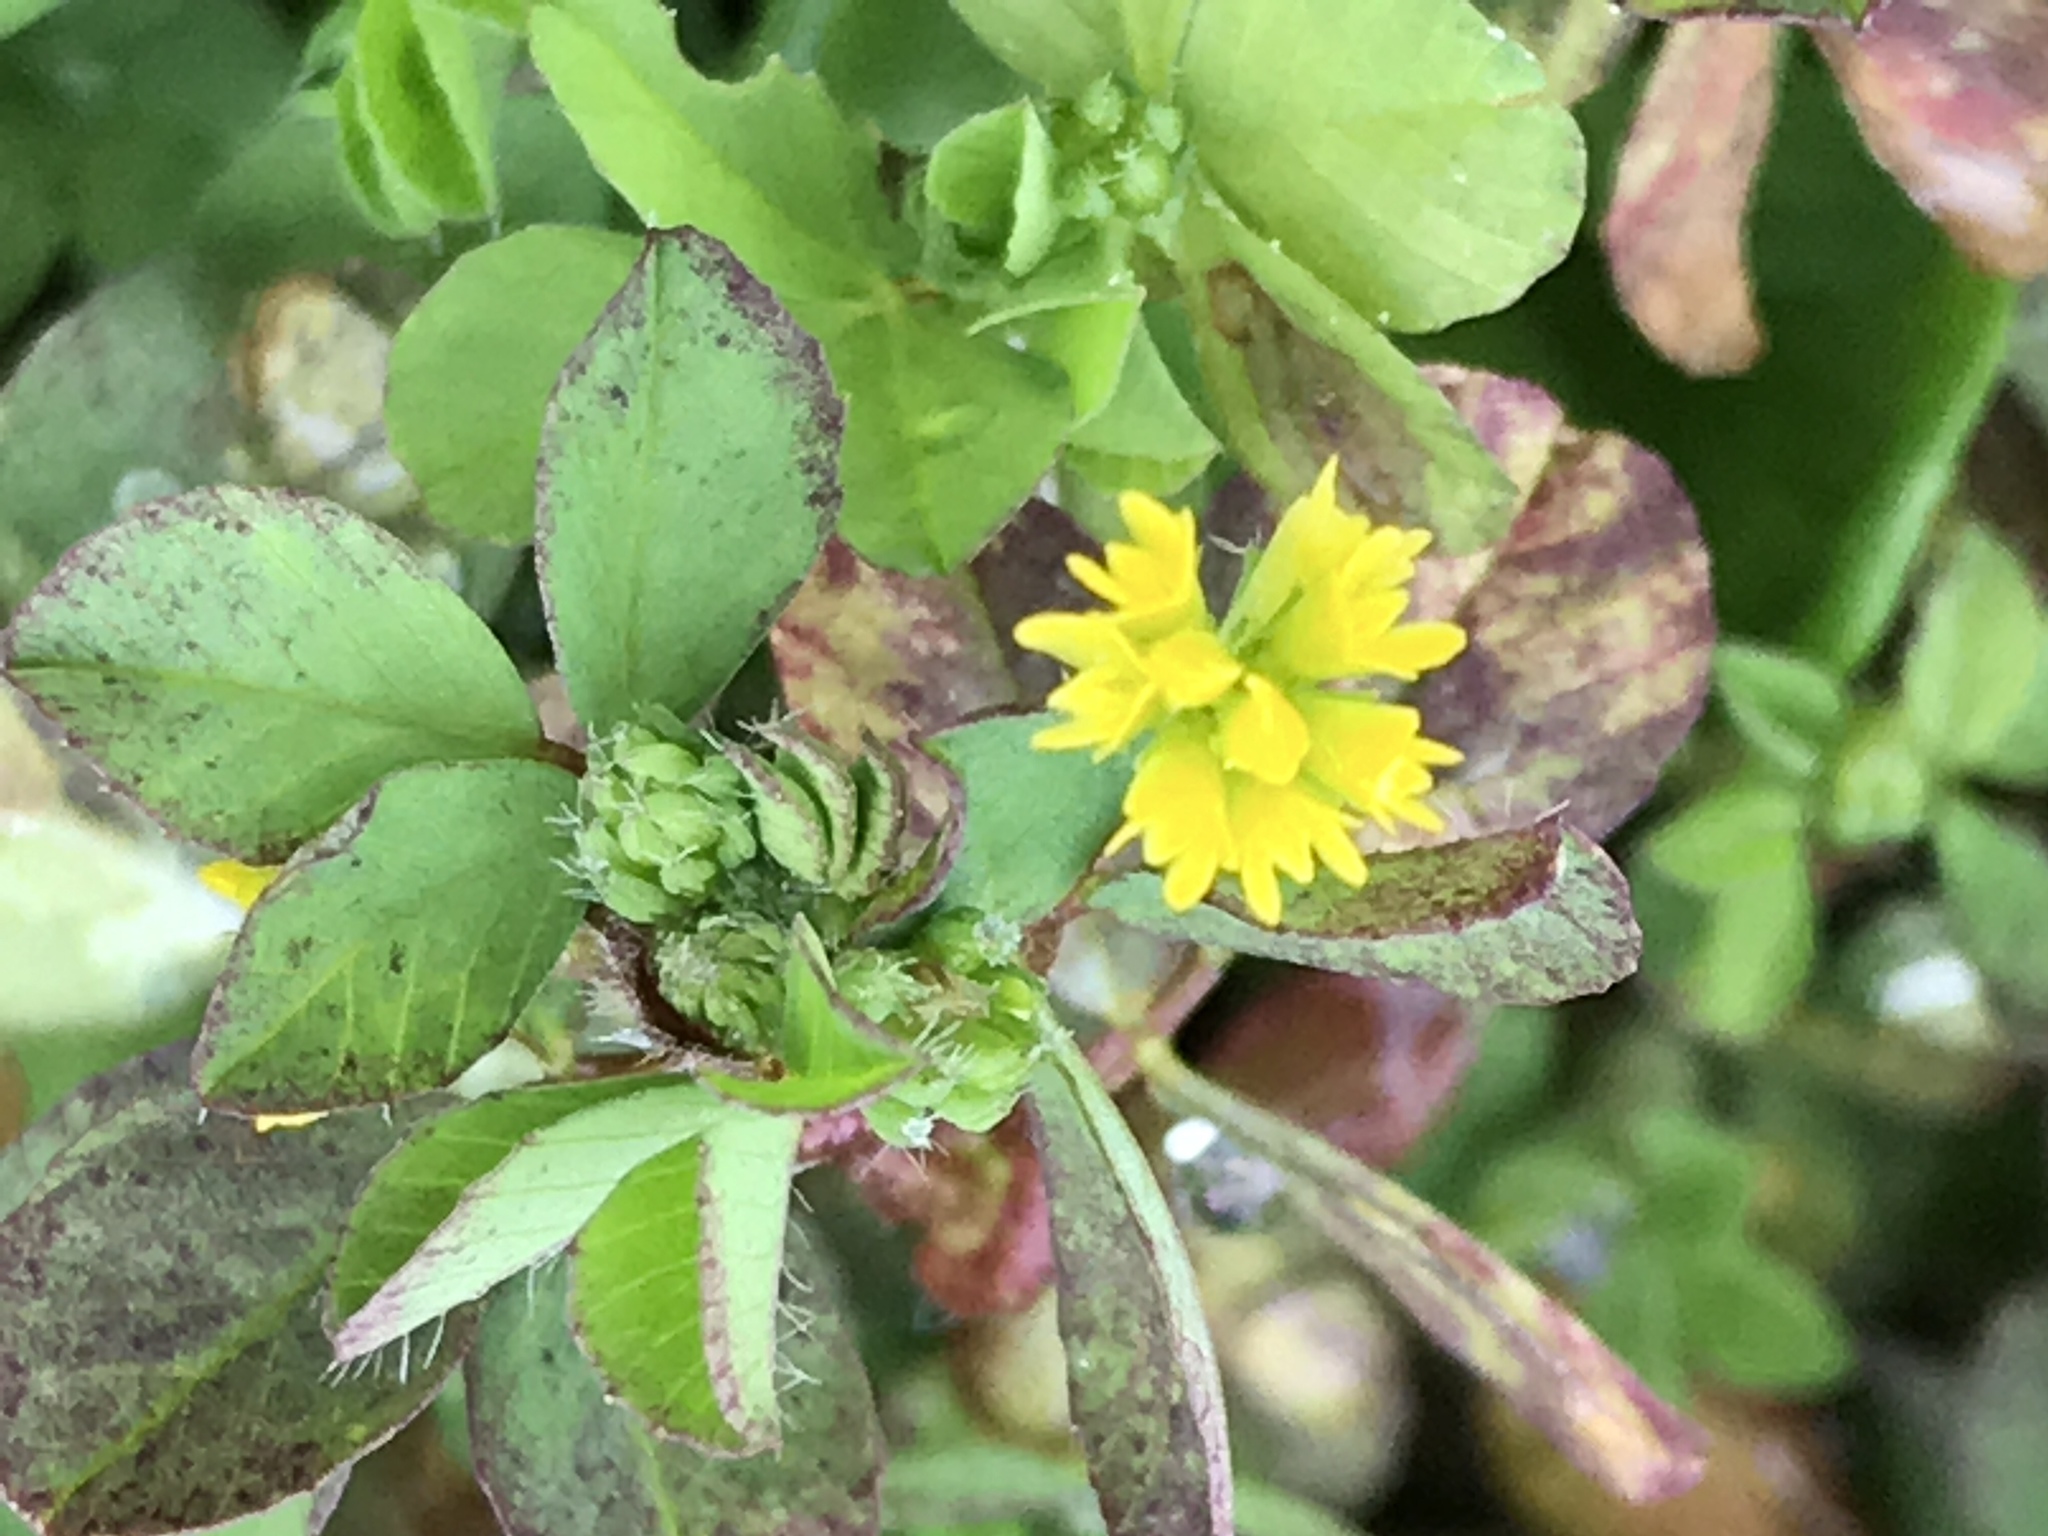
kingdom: Plantae
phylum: Tracheophyta
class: Magnoliopsida
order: Fabales
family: Fabaceae
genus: Trifolium
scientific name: Trifolium dubium
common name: Suckling clover
